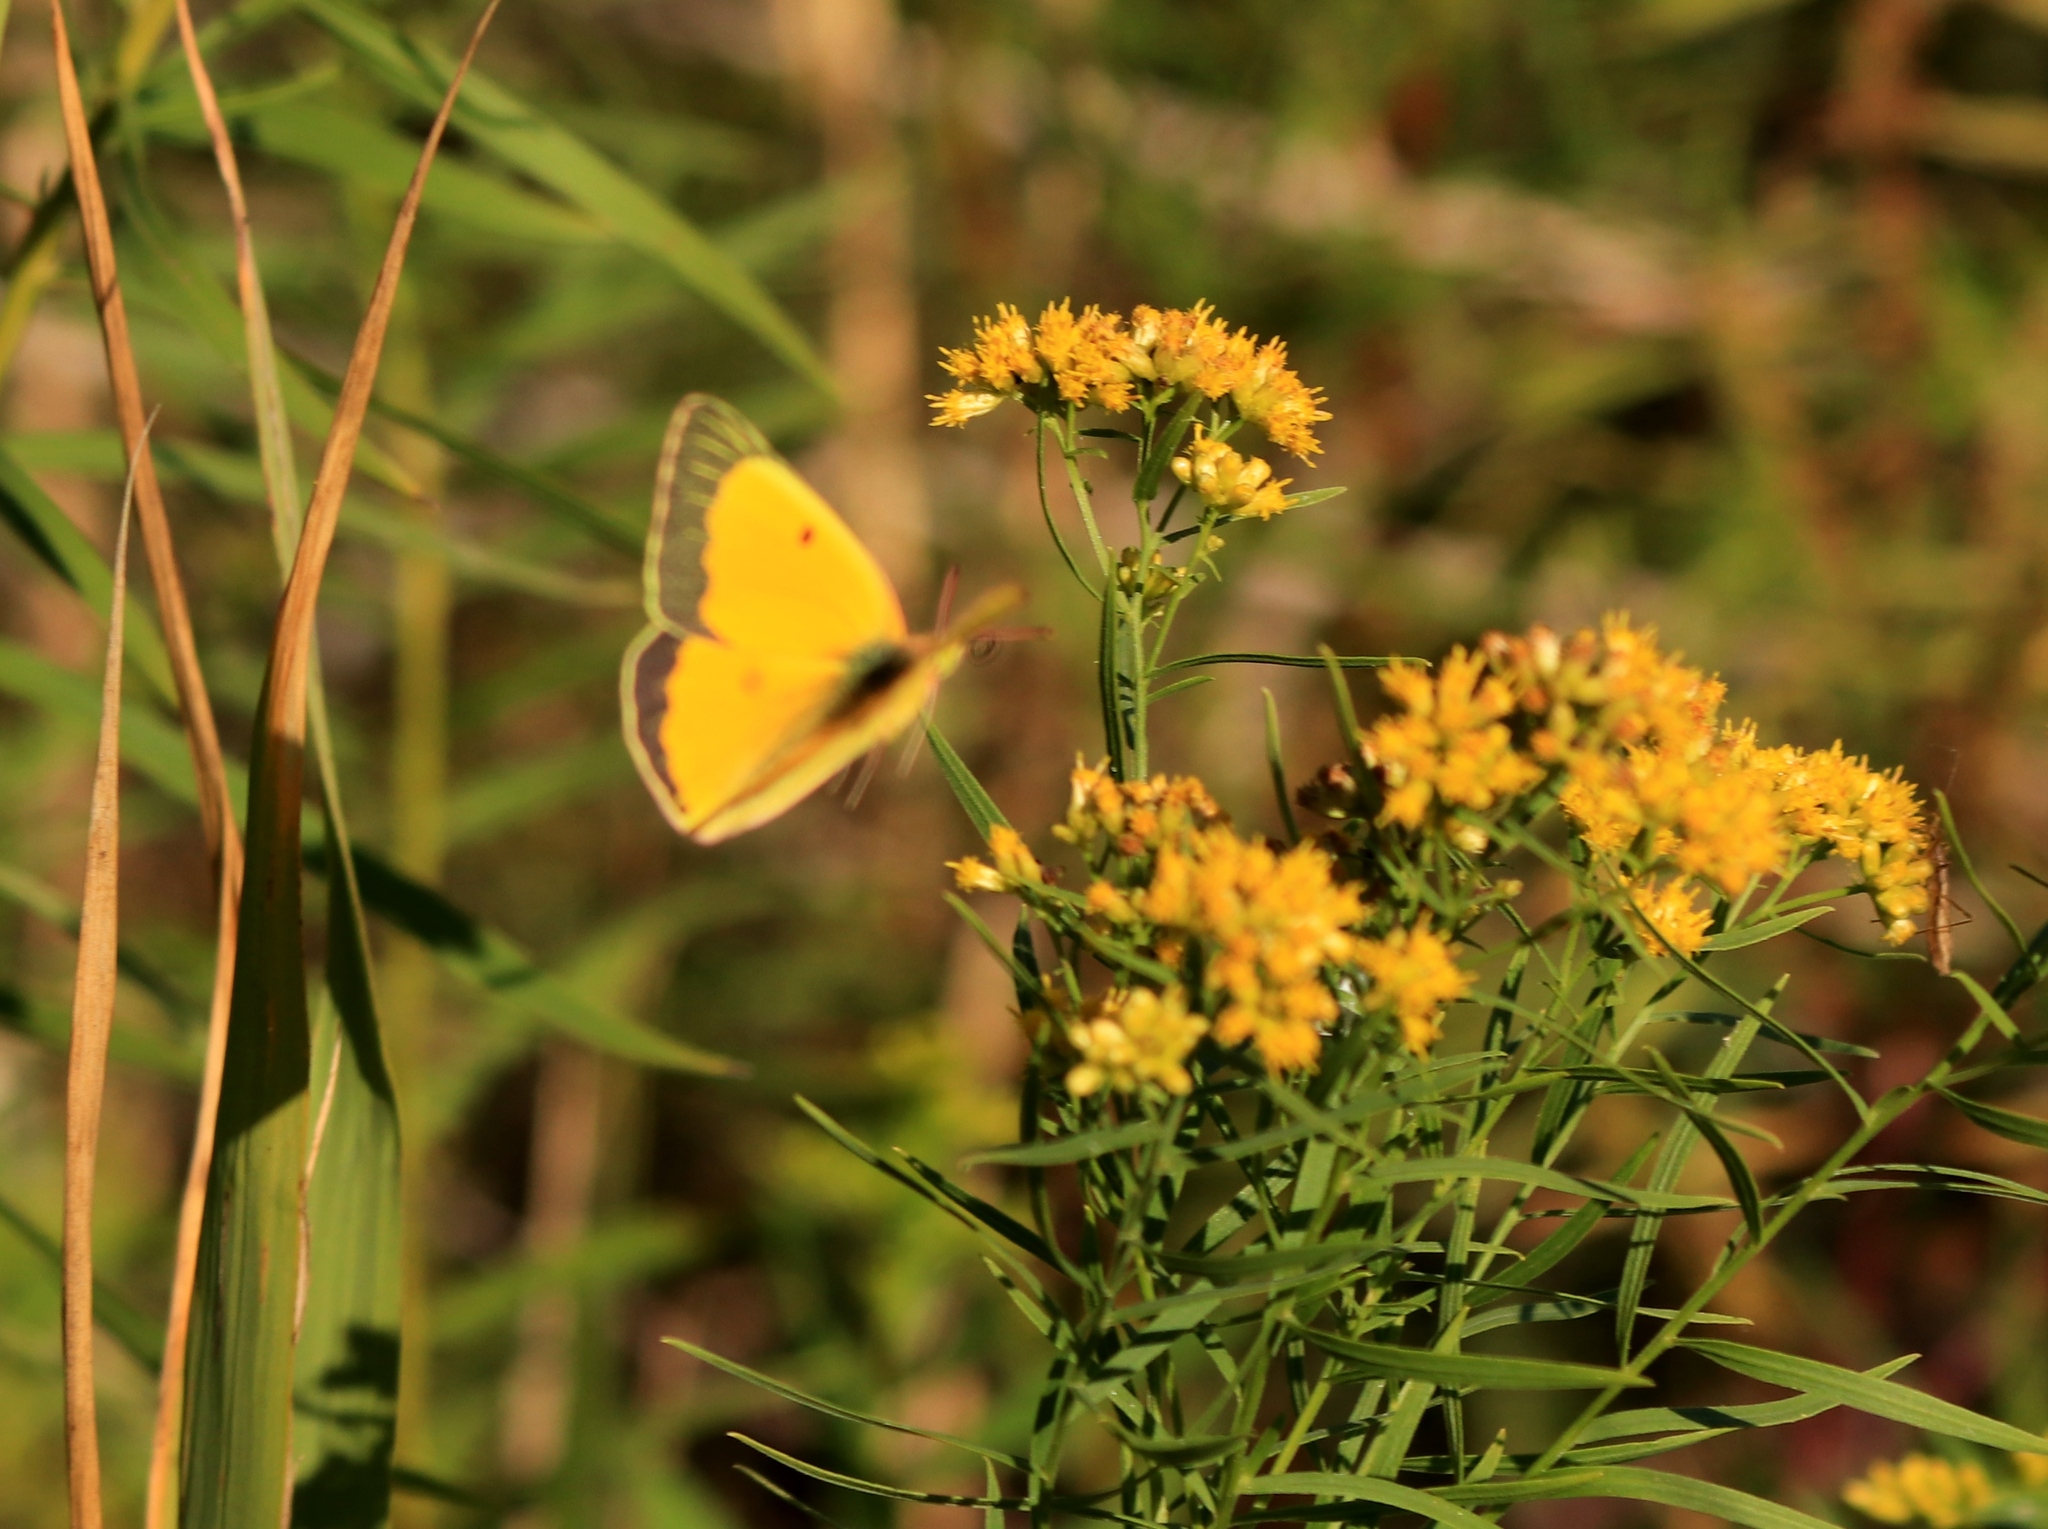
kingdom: Animalia
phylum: Arthropoda
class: Insecta
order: Lepidoptera
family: Pieridae
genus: Colias
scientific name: Colias eurytheme
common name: Alfalfa butterfly
